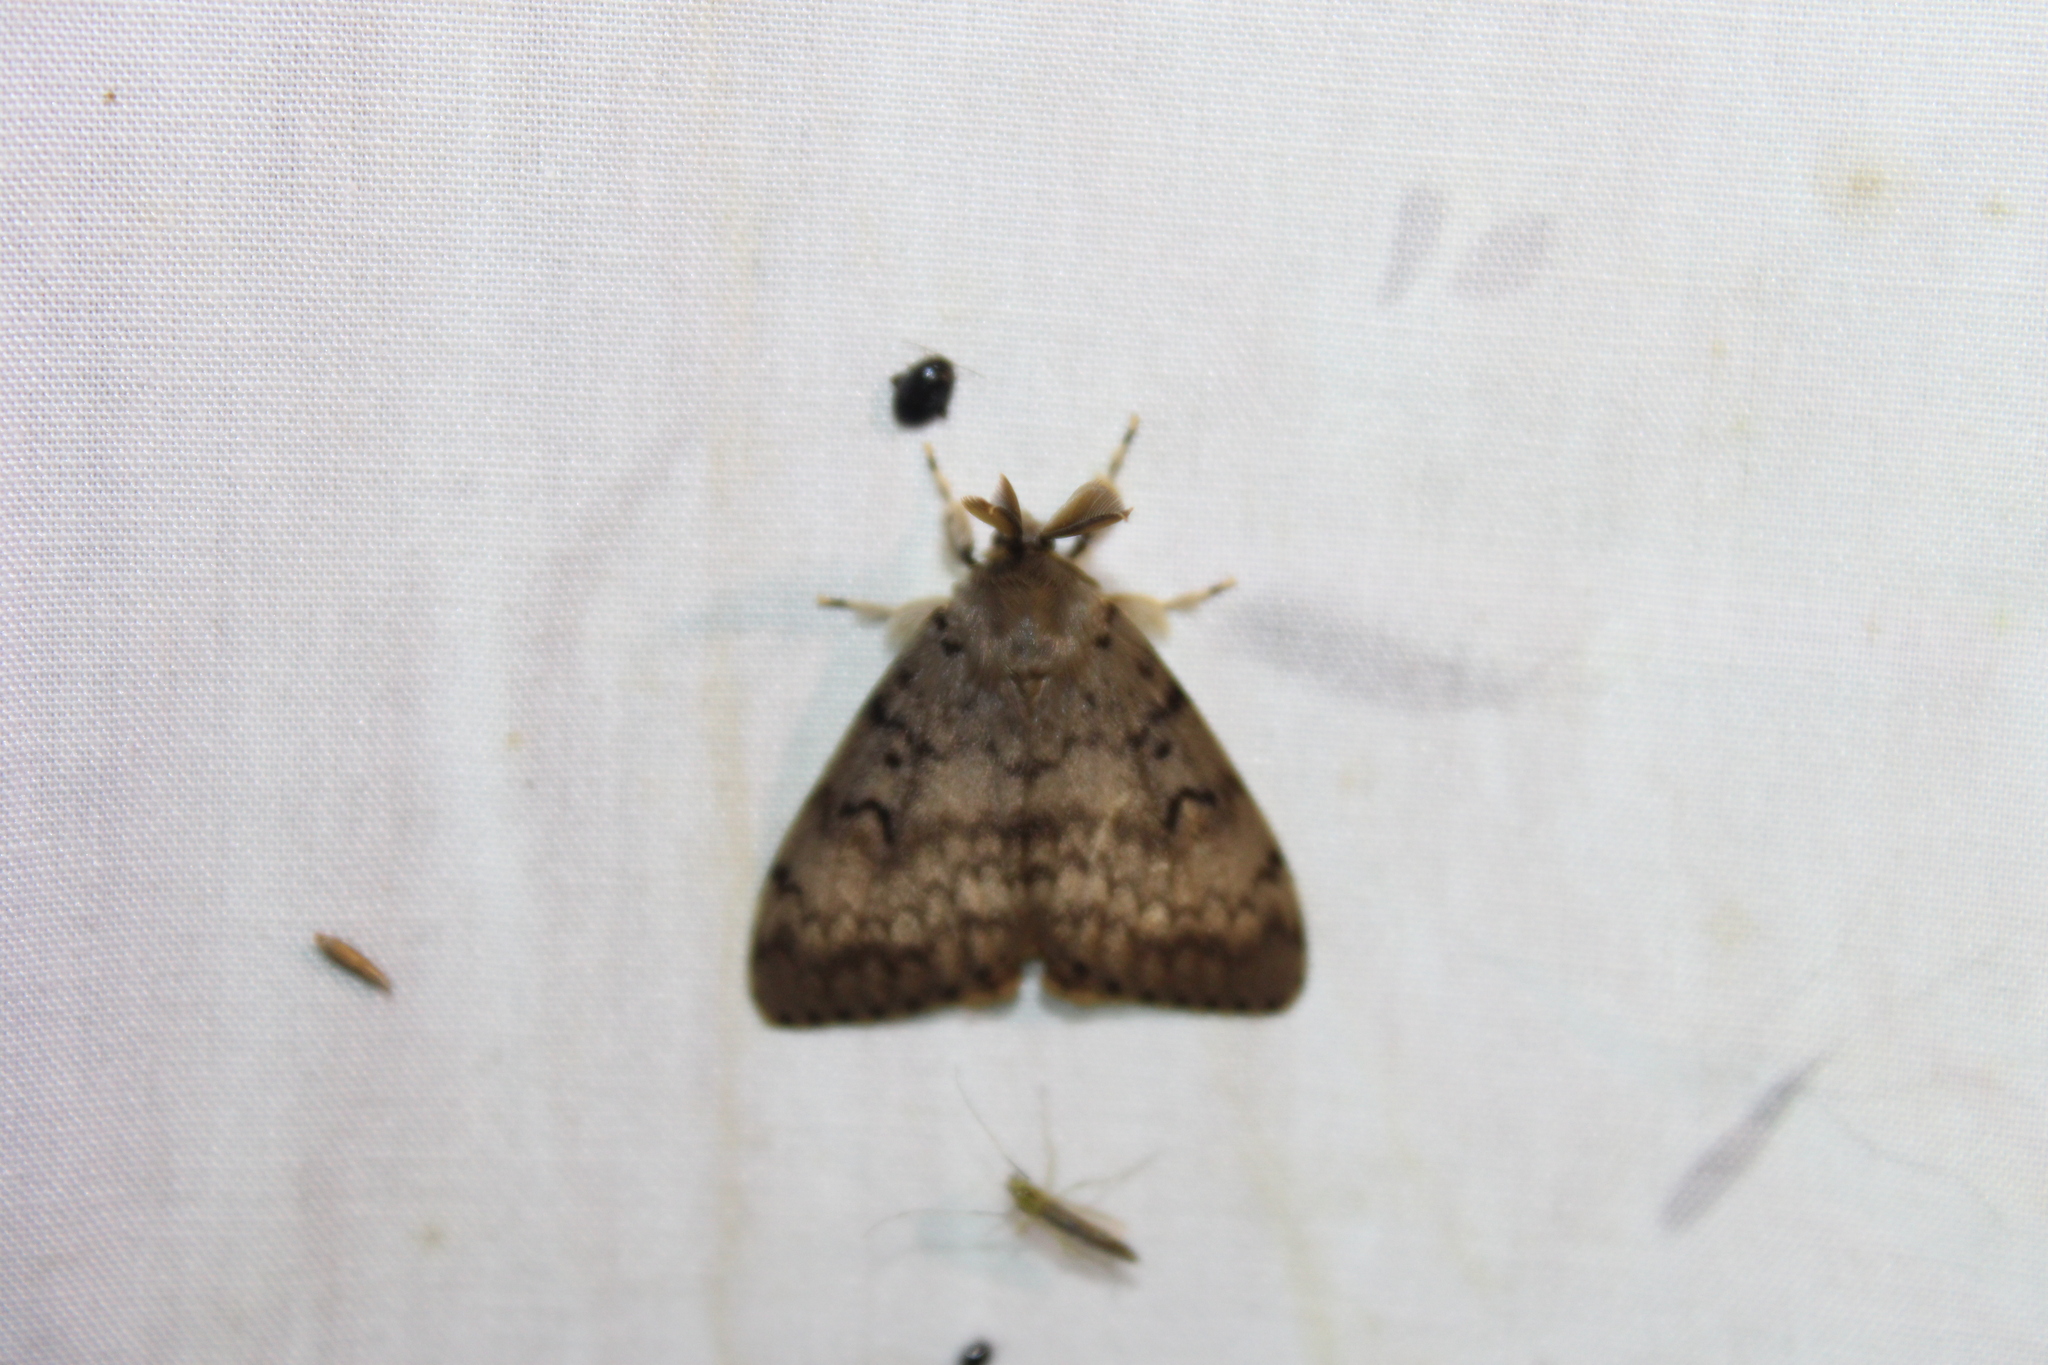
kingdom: Animalia
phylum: Arthropoda
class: Insecta
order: Lepidoptera
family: Erebidae
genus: Lymantria
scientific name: Lymantria dispar
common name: Gypsy moth
